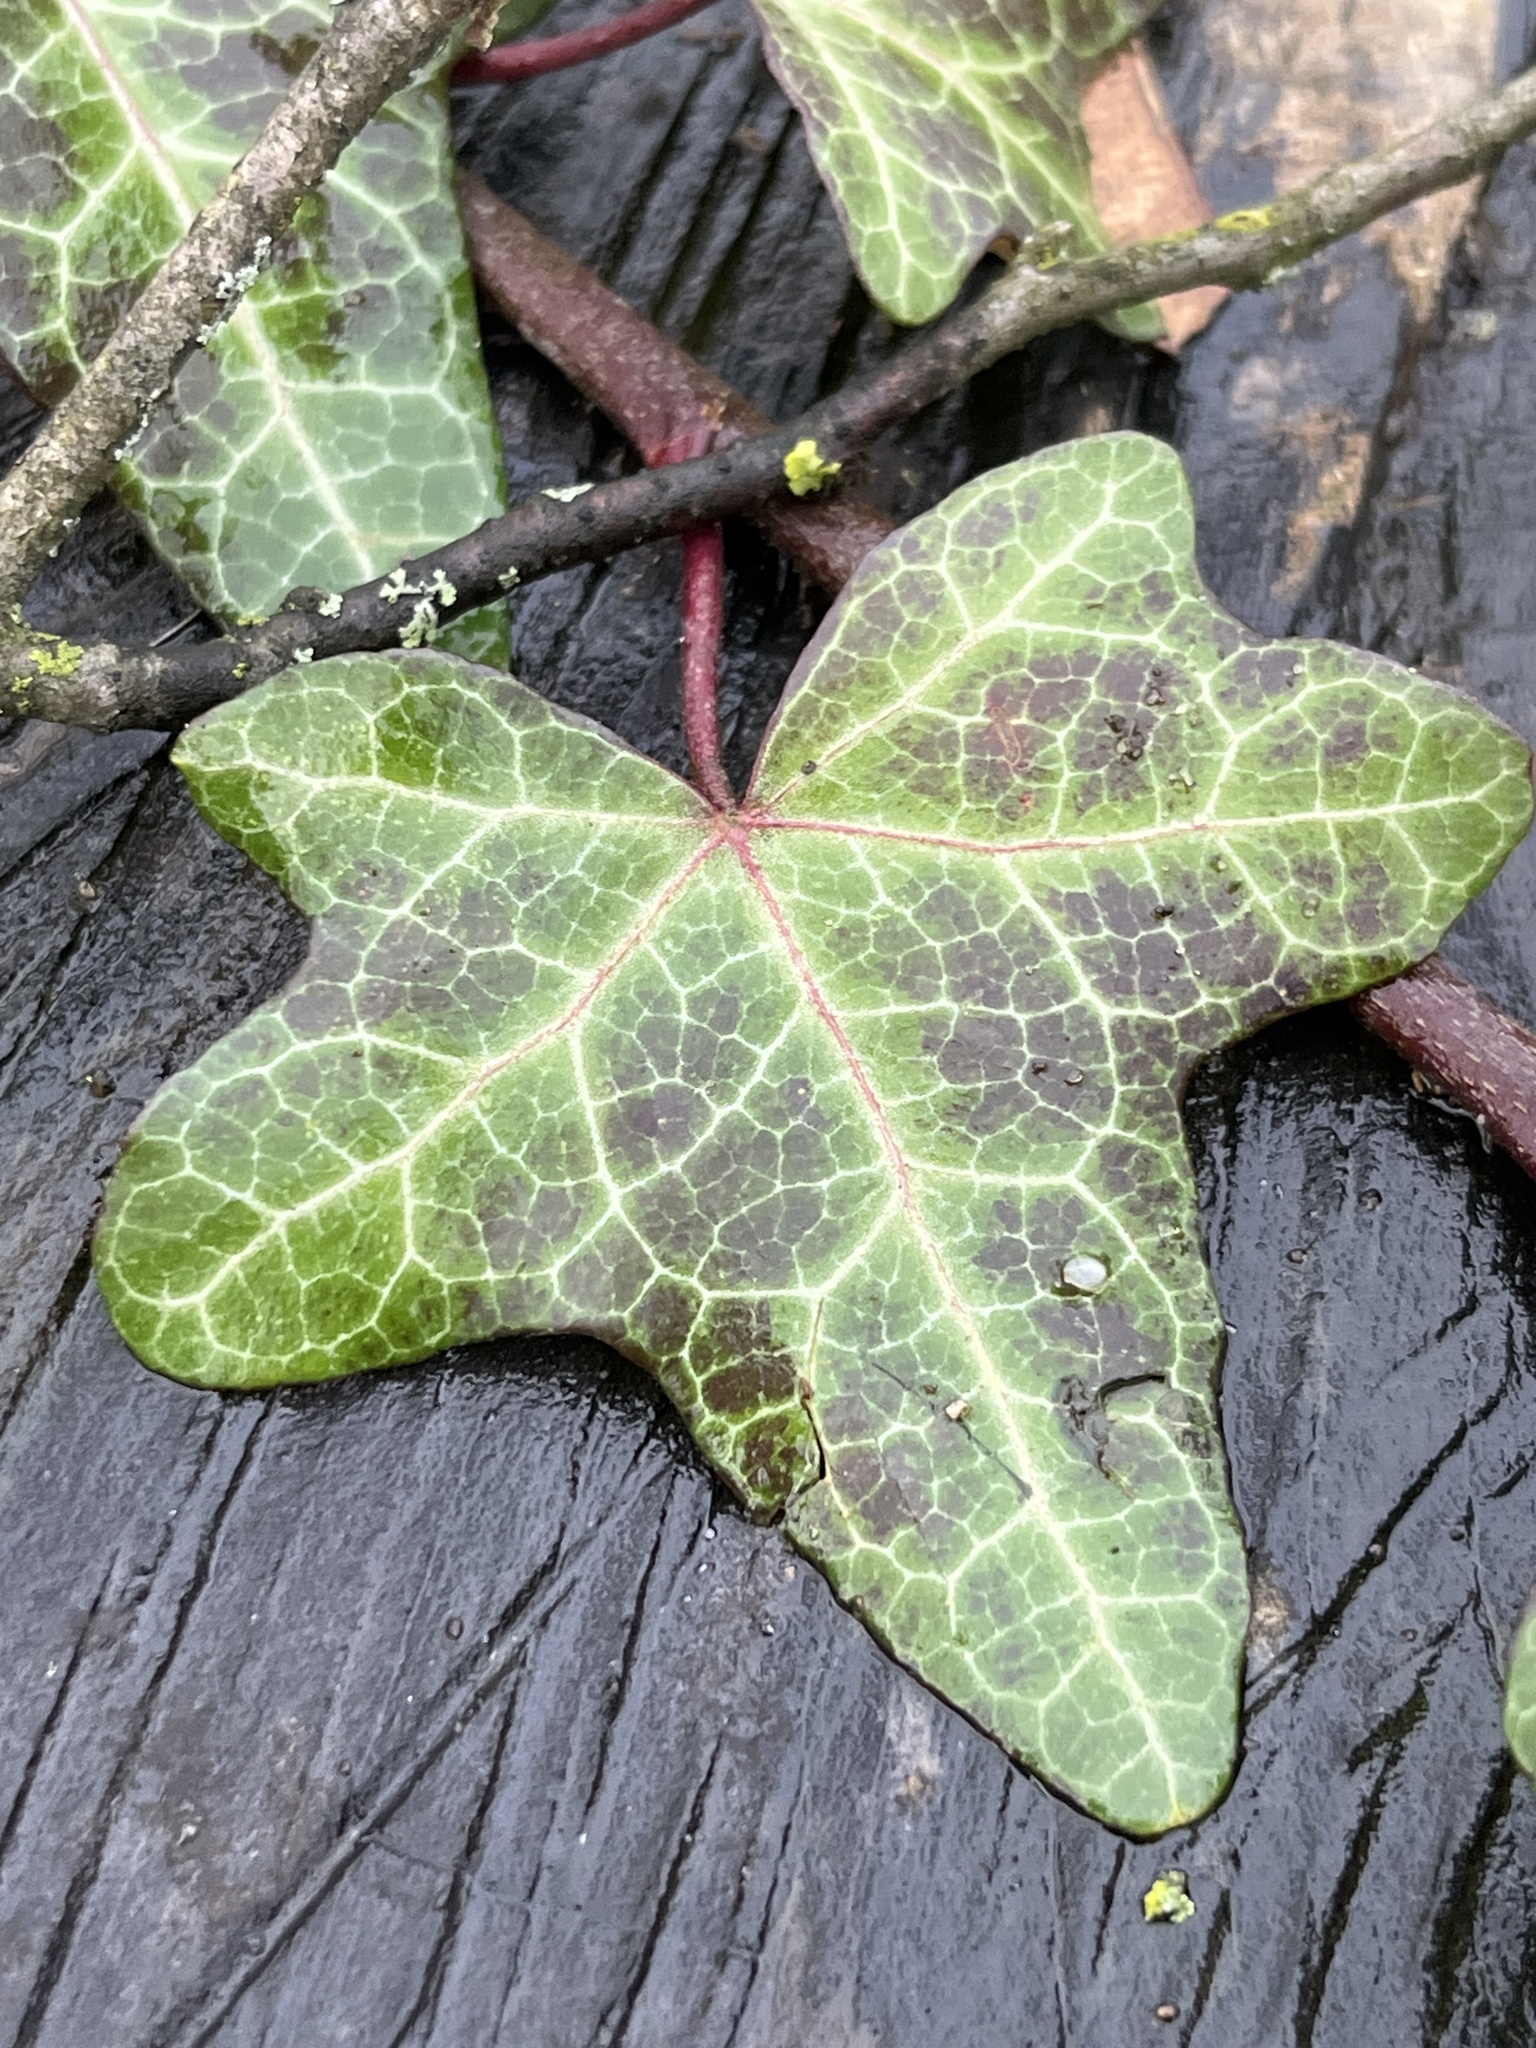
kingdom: Plantae
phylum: Tracheophyta
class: Magnoliopsida
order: Apiales
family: Araliaceae
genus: Hedera
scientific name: Hedera helix
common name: Ivy
